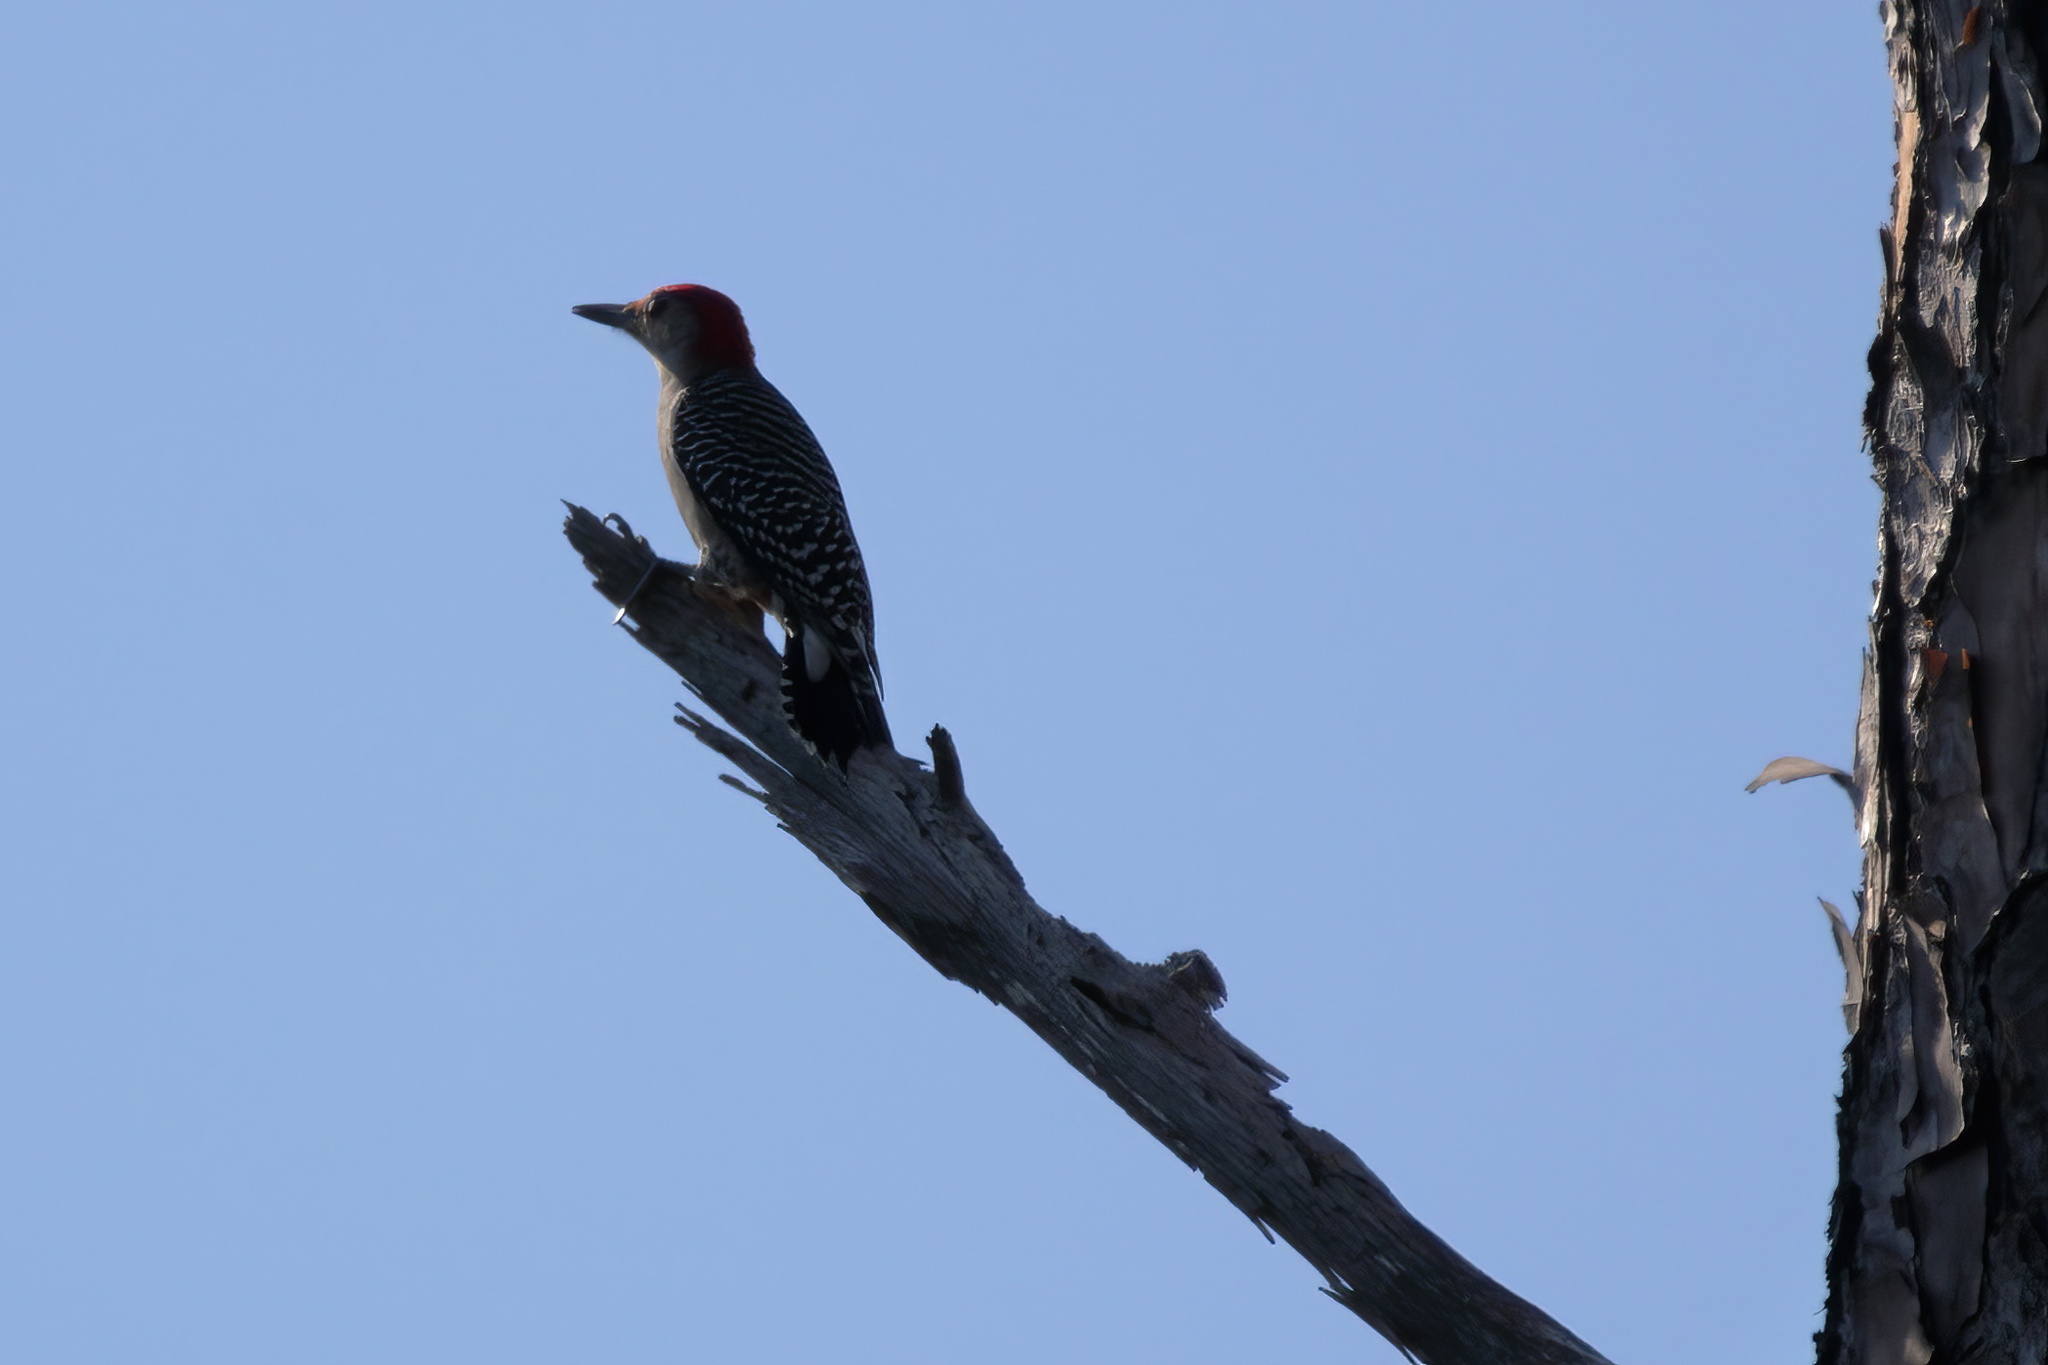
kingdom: Animalia
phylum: Chordata
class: Aves
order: Piciformes
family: Picidae
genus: Melanerpes
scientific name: Melanerpes carolinus
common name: Red-bellied woodpecker
